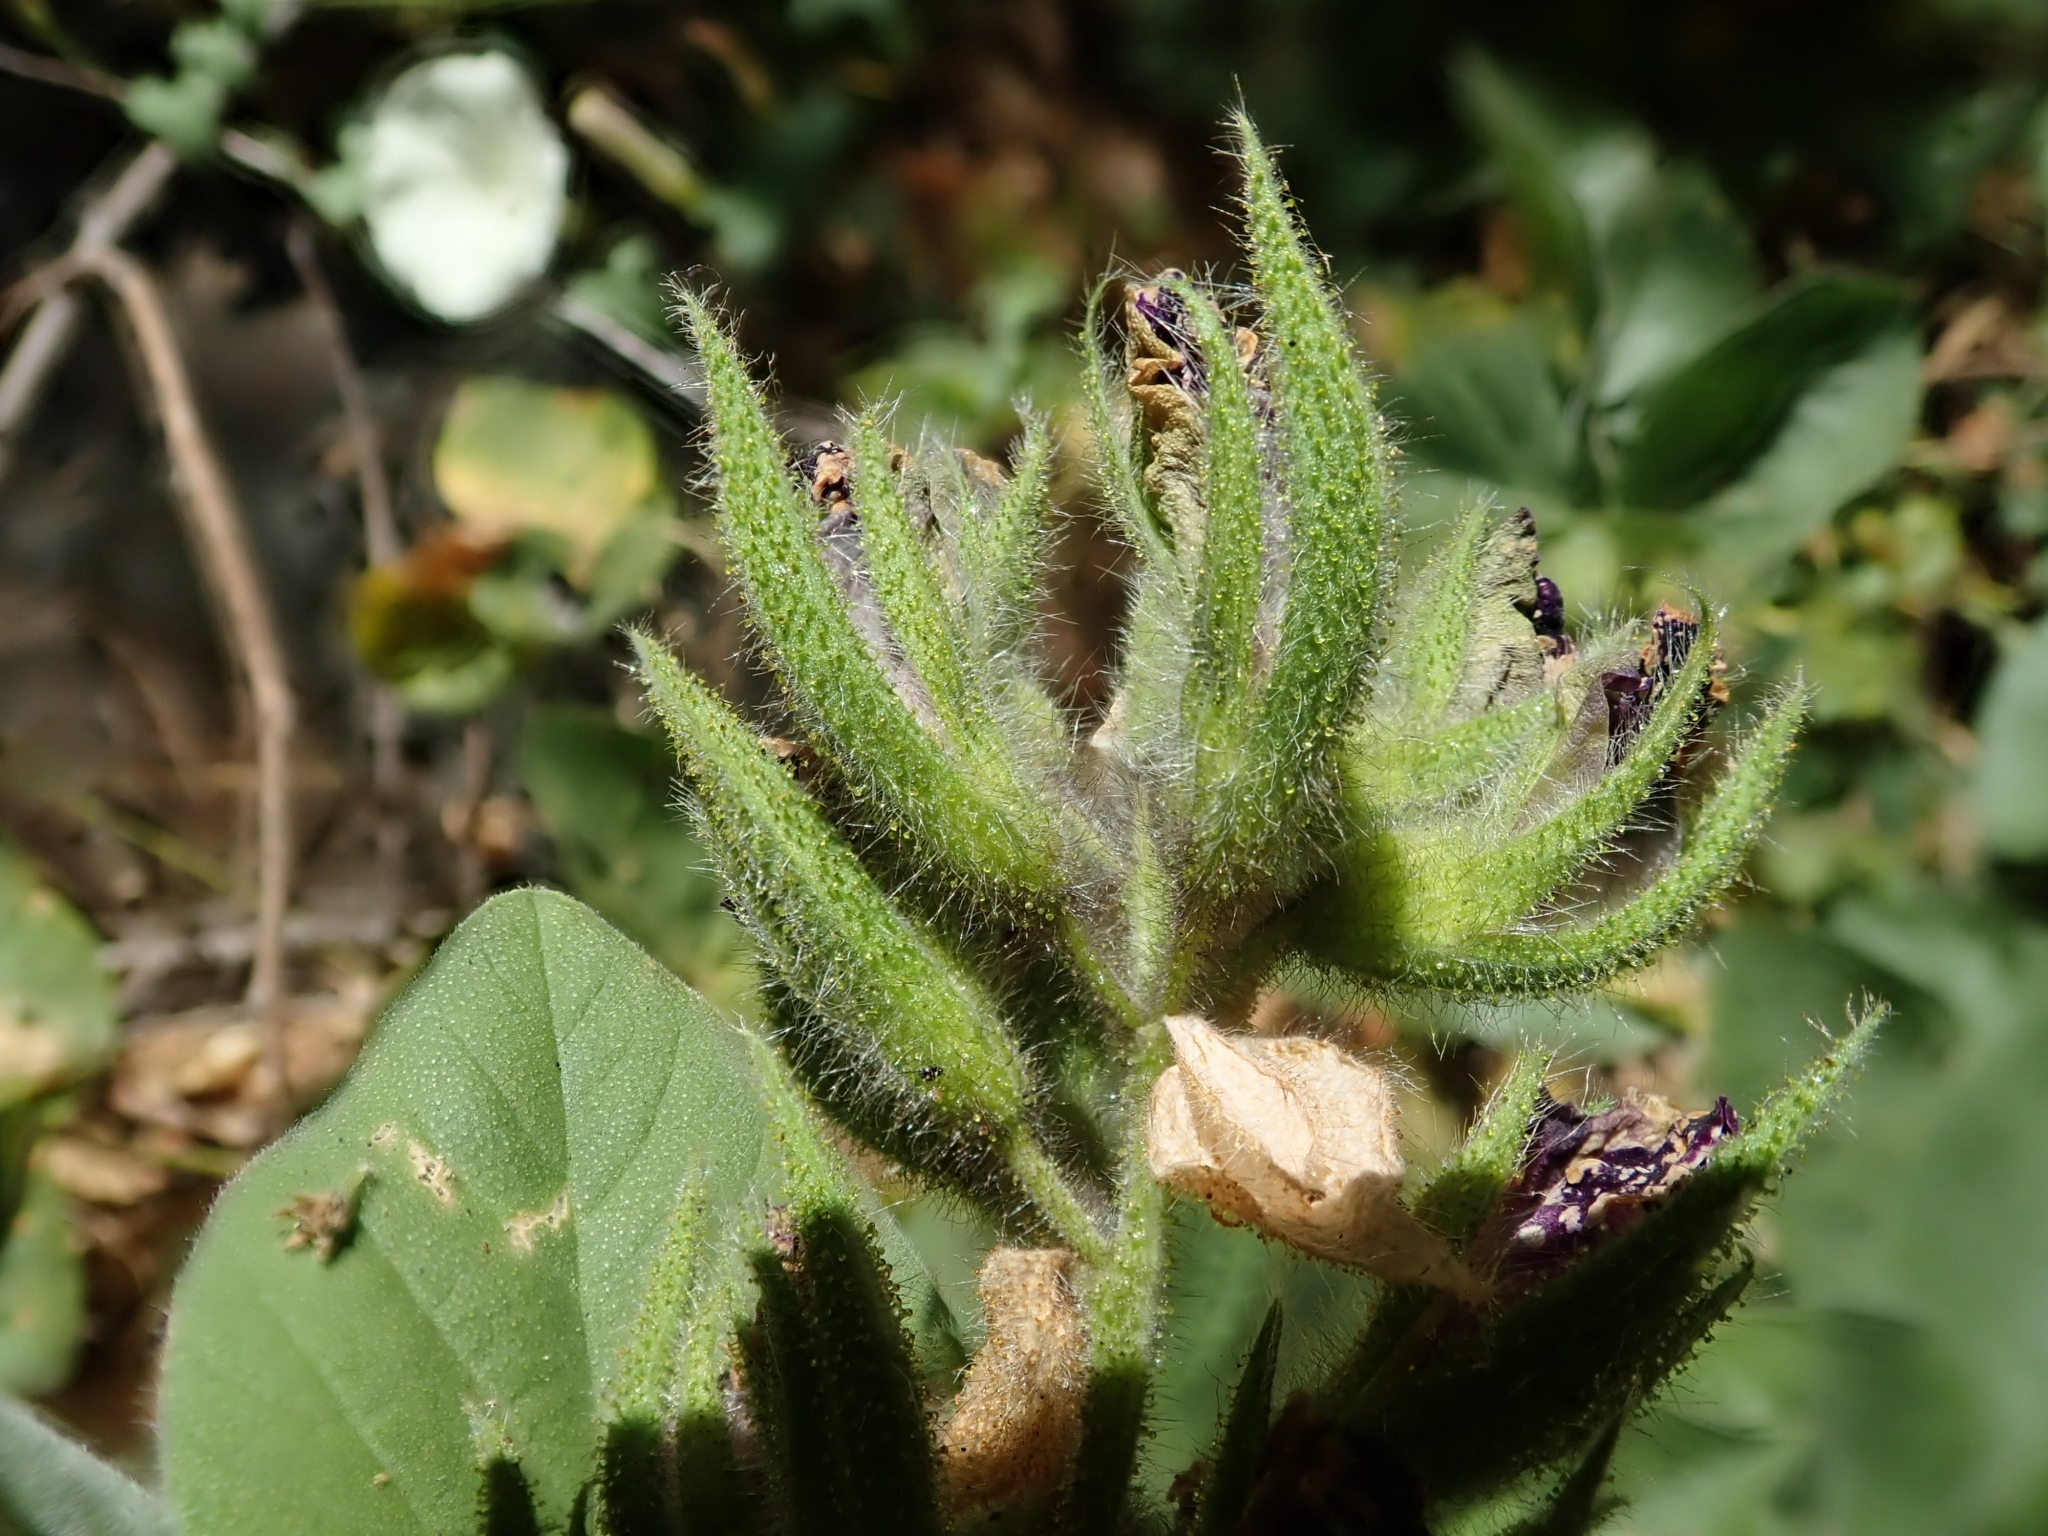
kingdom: Plantae
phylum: Tracheophyta
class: Magnoliopsida
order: Fabales
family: Fabaceae
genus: Hoita
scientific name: Hoita strobilina
